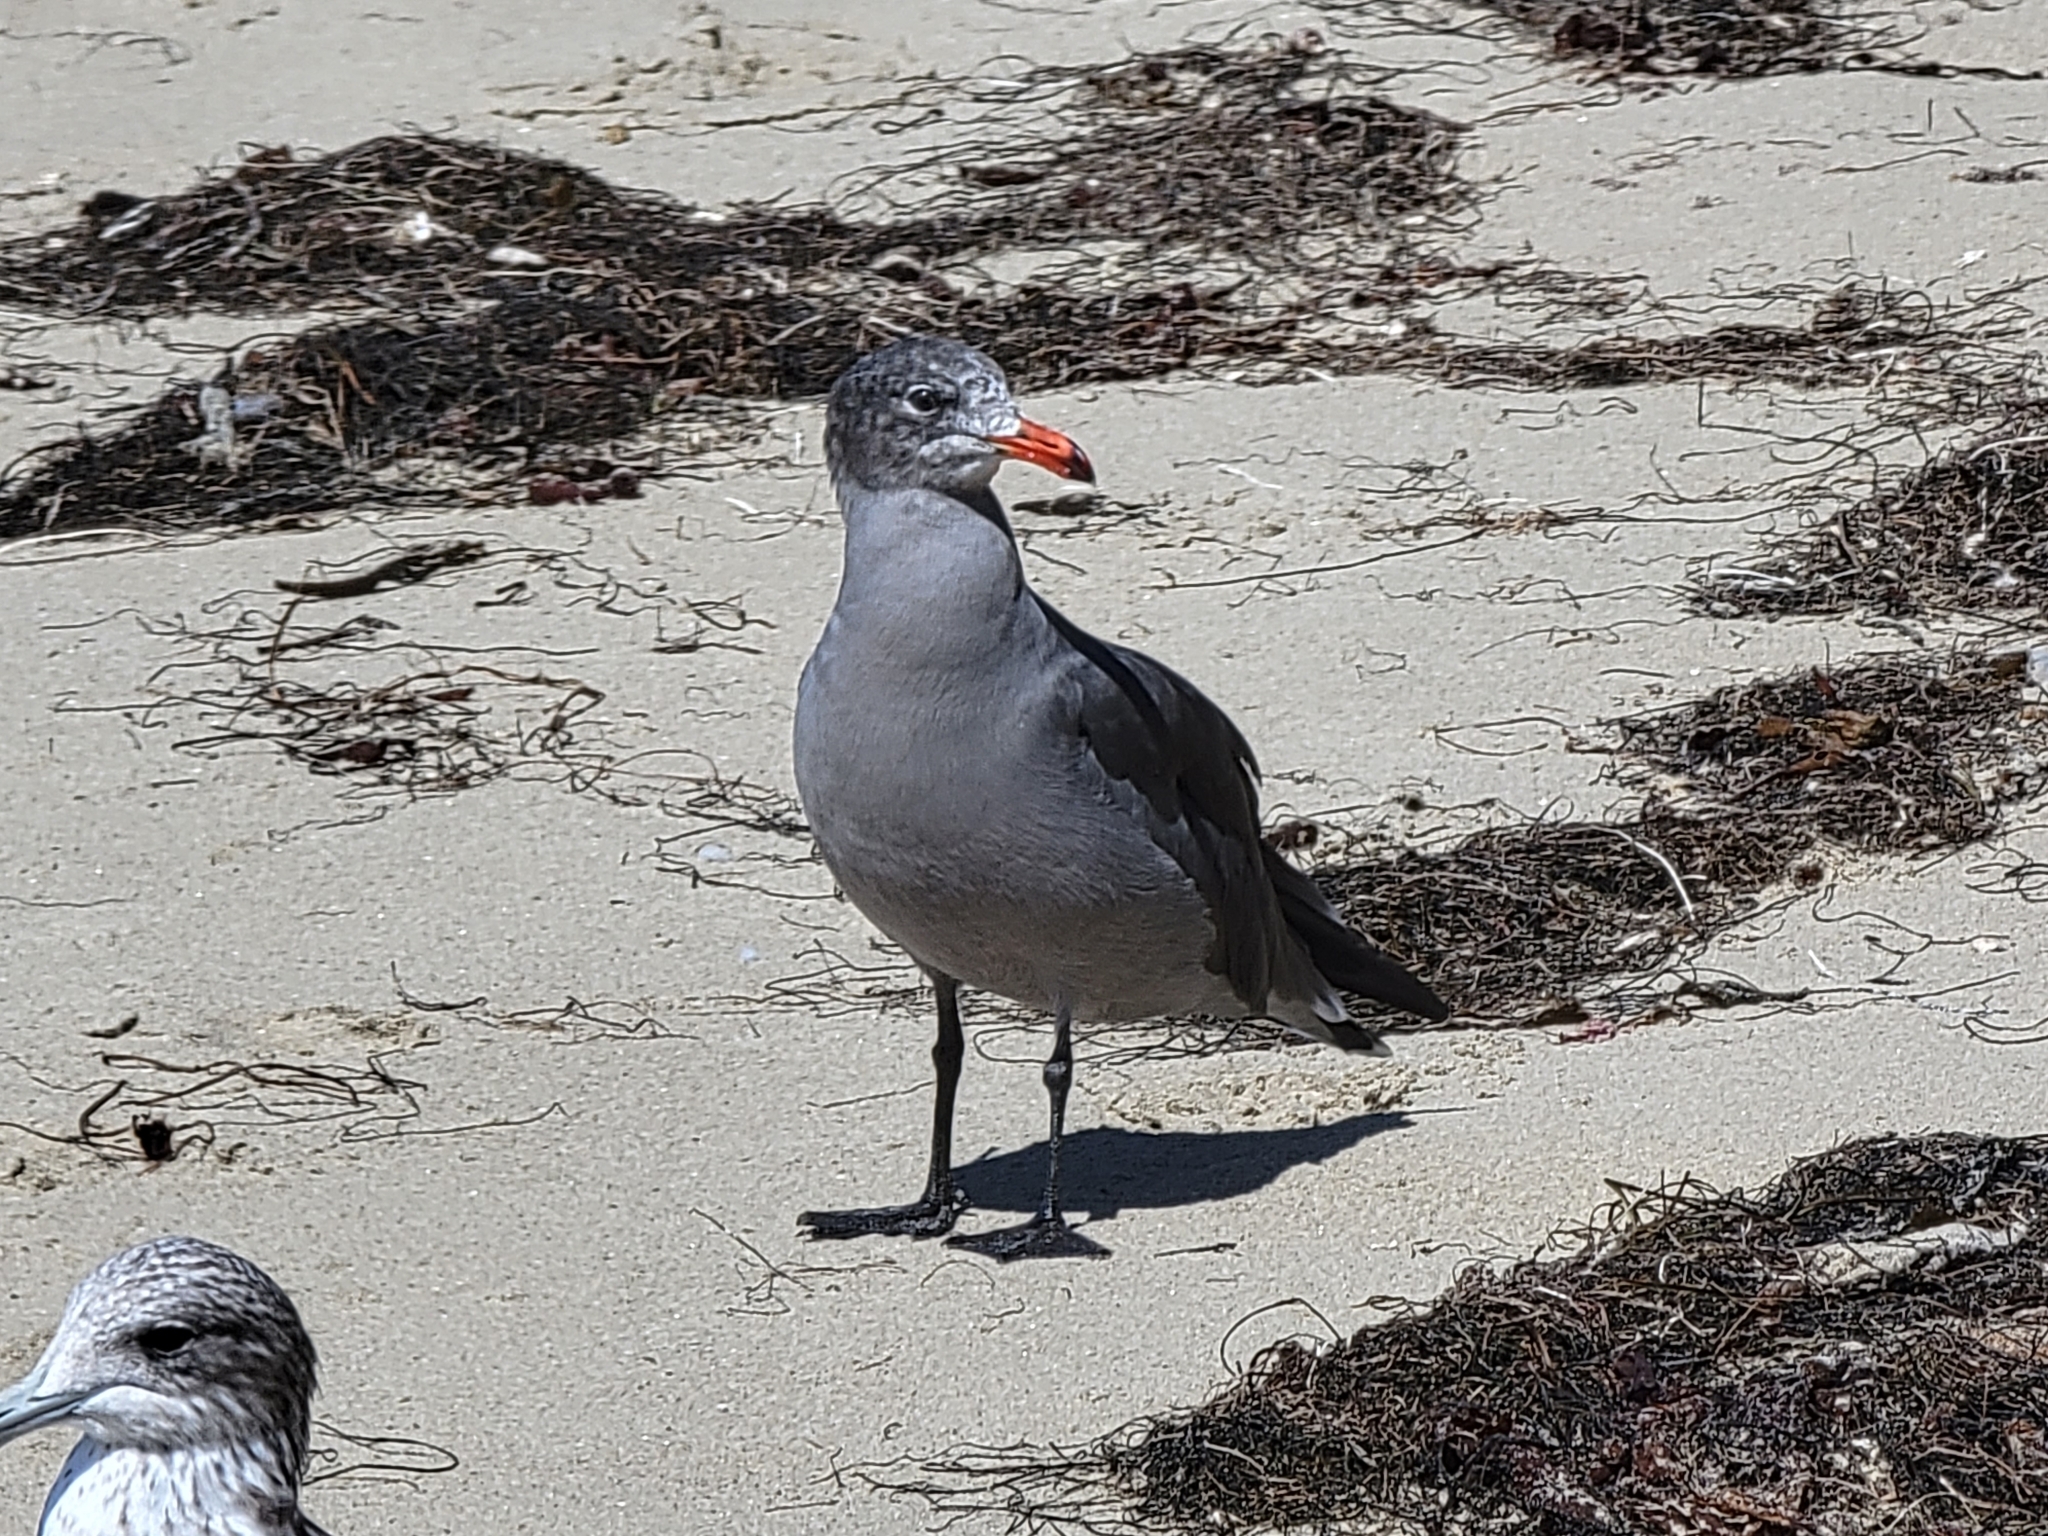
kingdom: Animalia
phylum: Chordata
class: Aves
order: Charadriiformes
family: Laridae
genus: Larus
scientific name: Larus heermanni
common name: Heermann's gull
